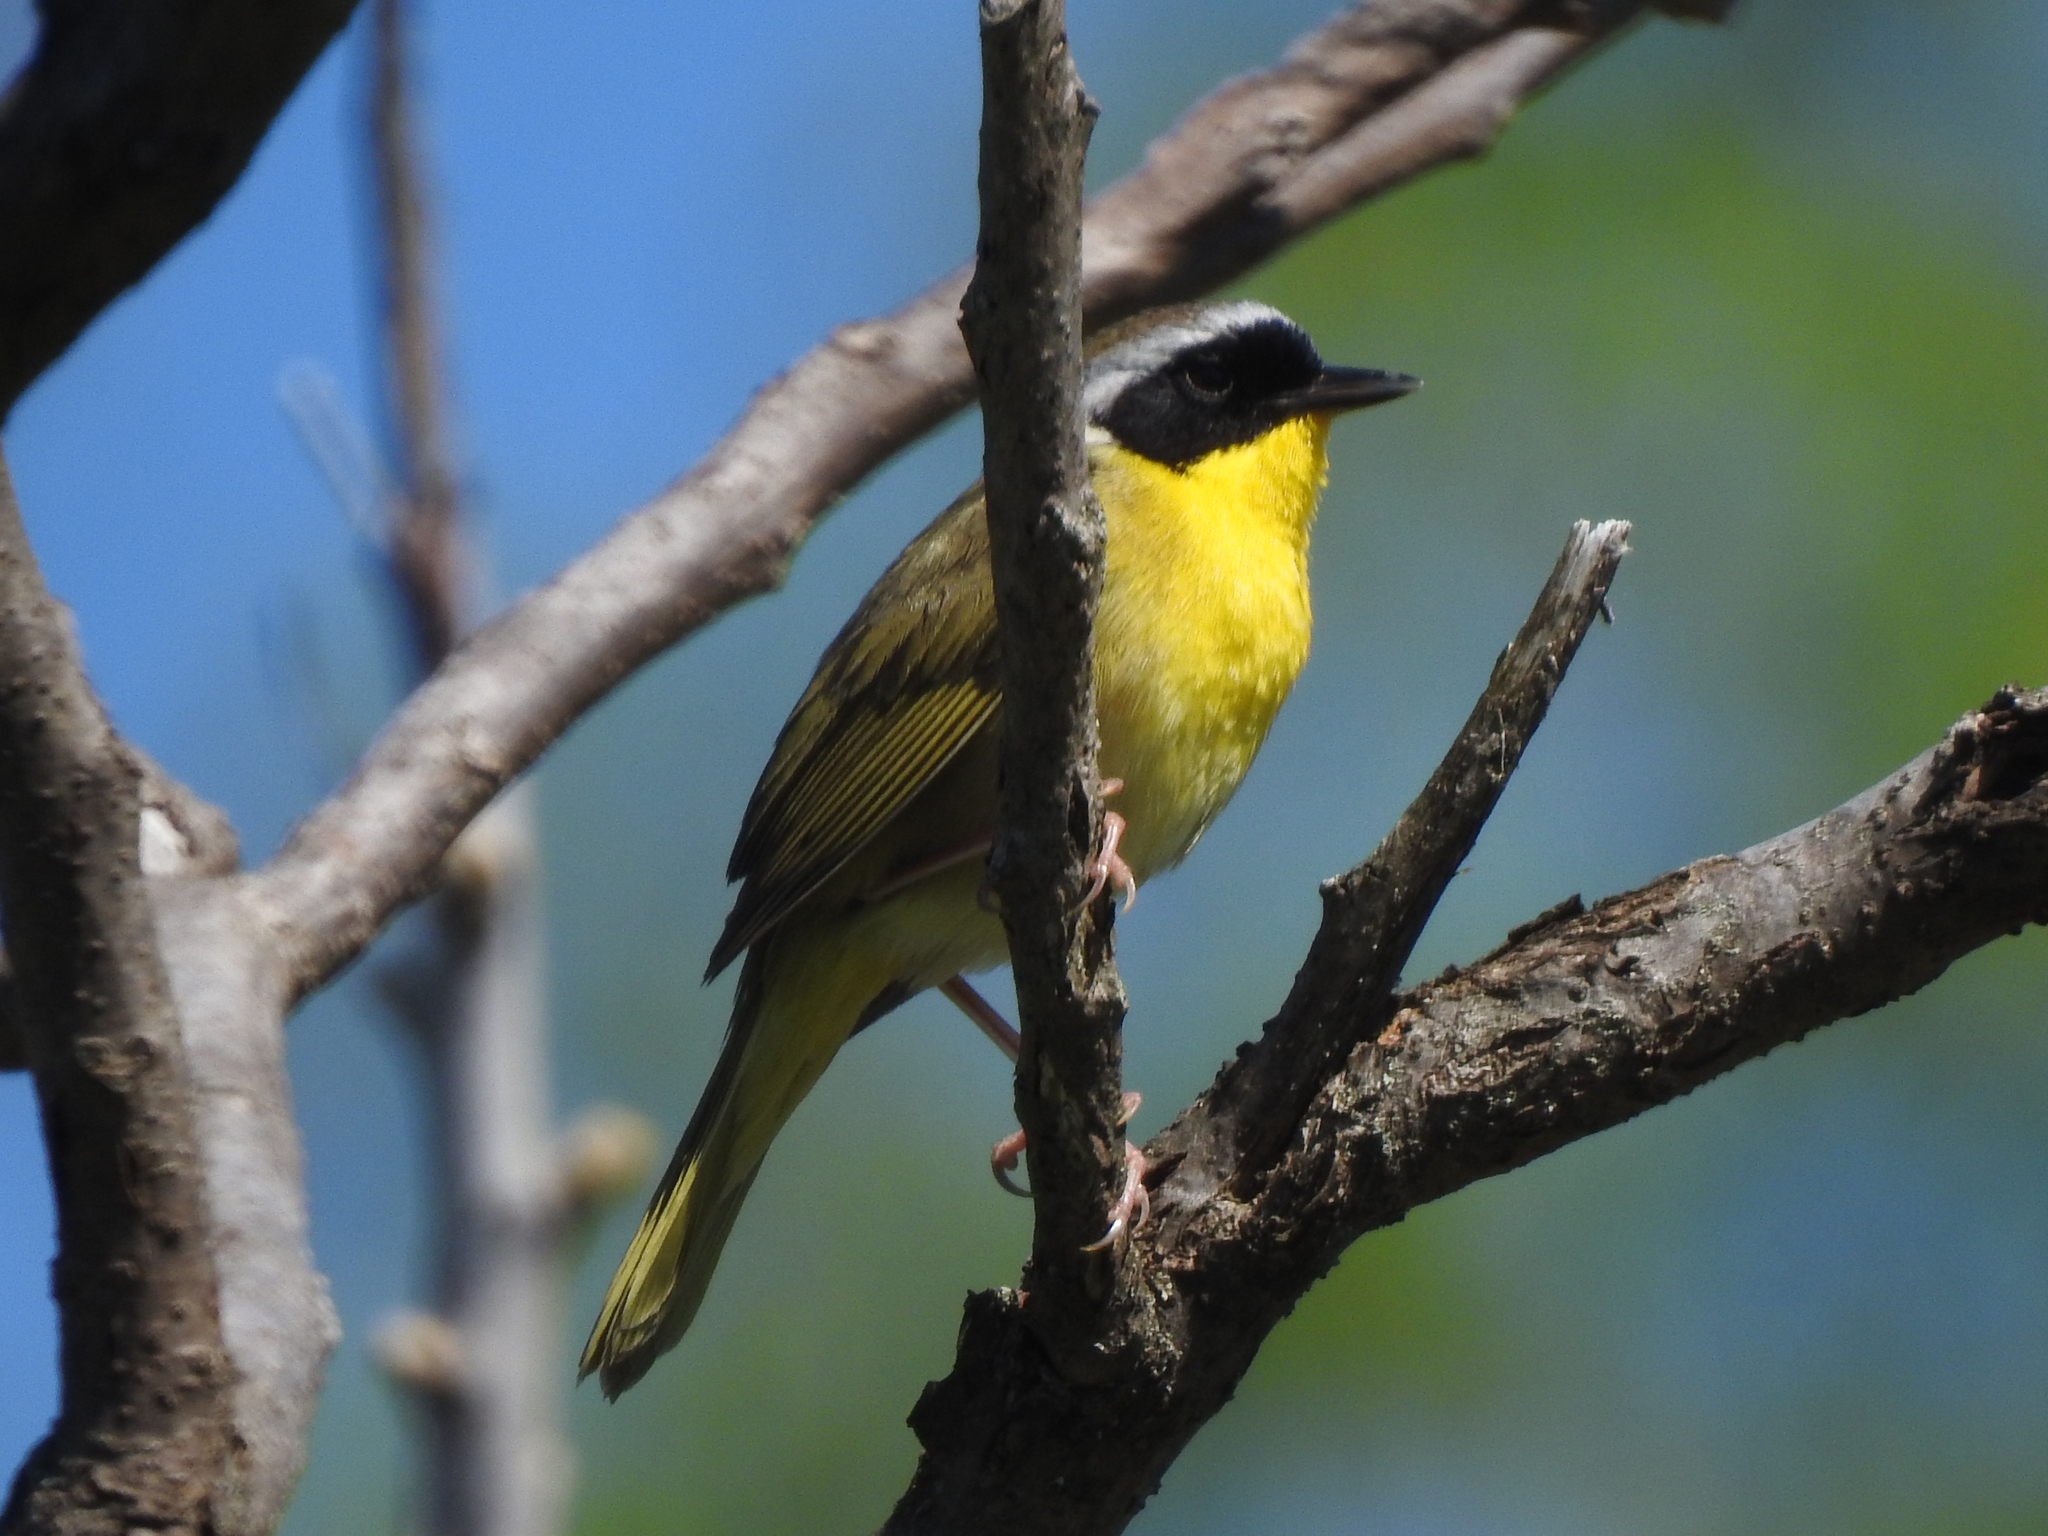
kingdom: Animalia
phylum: Chordata
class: Aves
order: Passeriformes
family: Parulidae
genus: Geothlypis
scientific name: Geothlypis trichas
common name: Common yellowthroat
